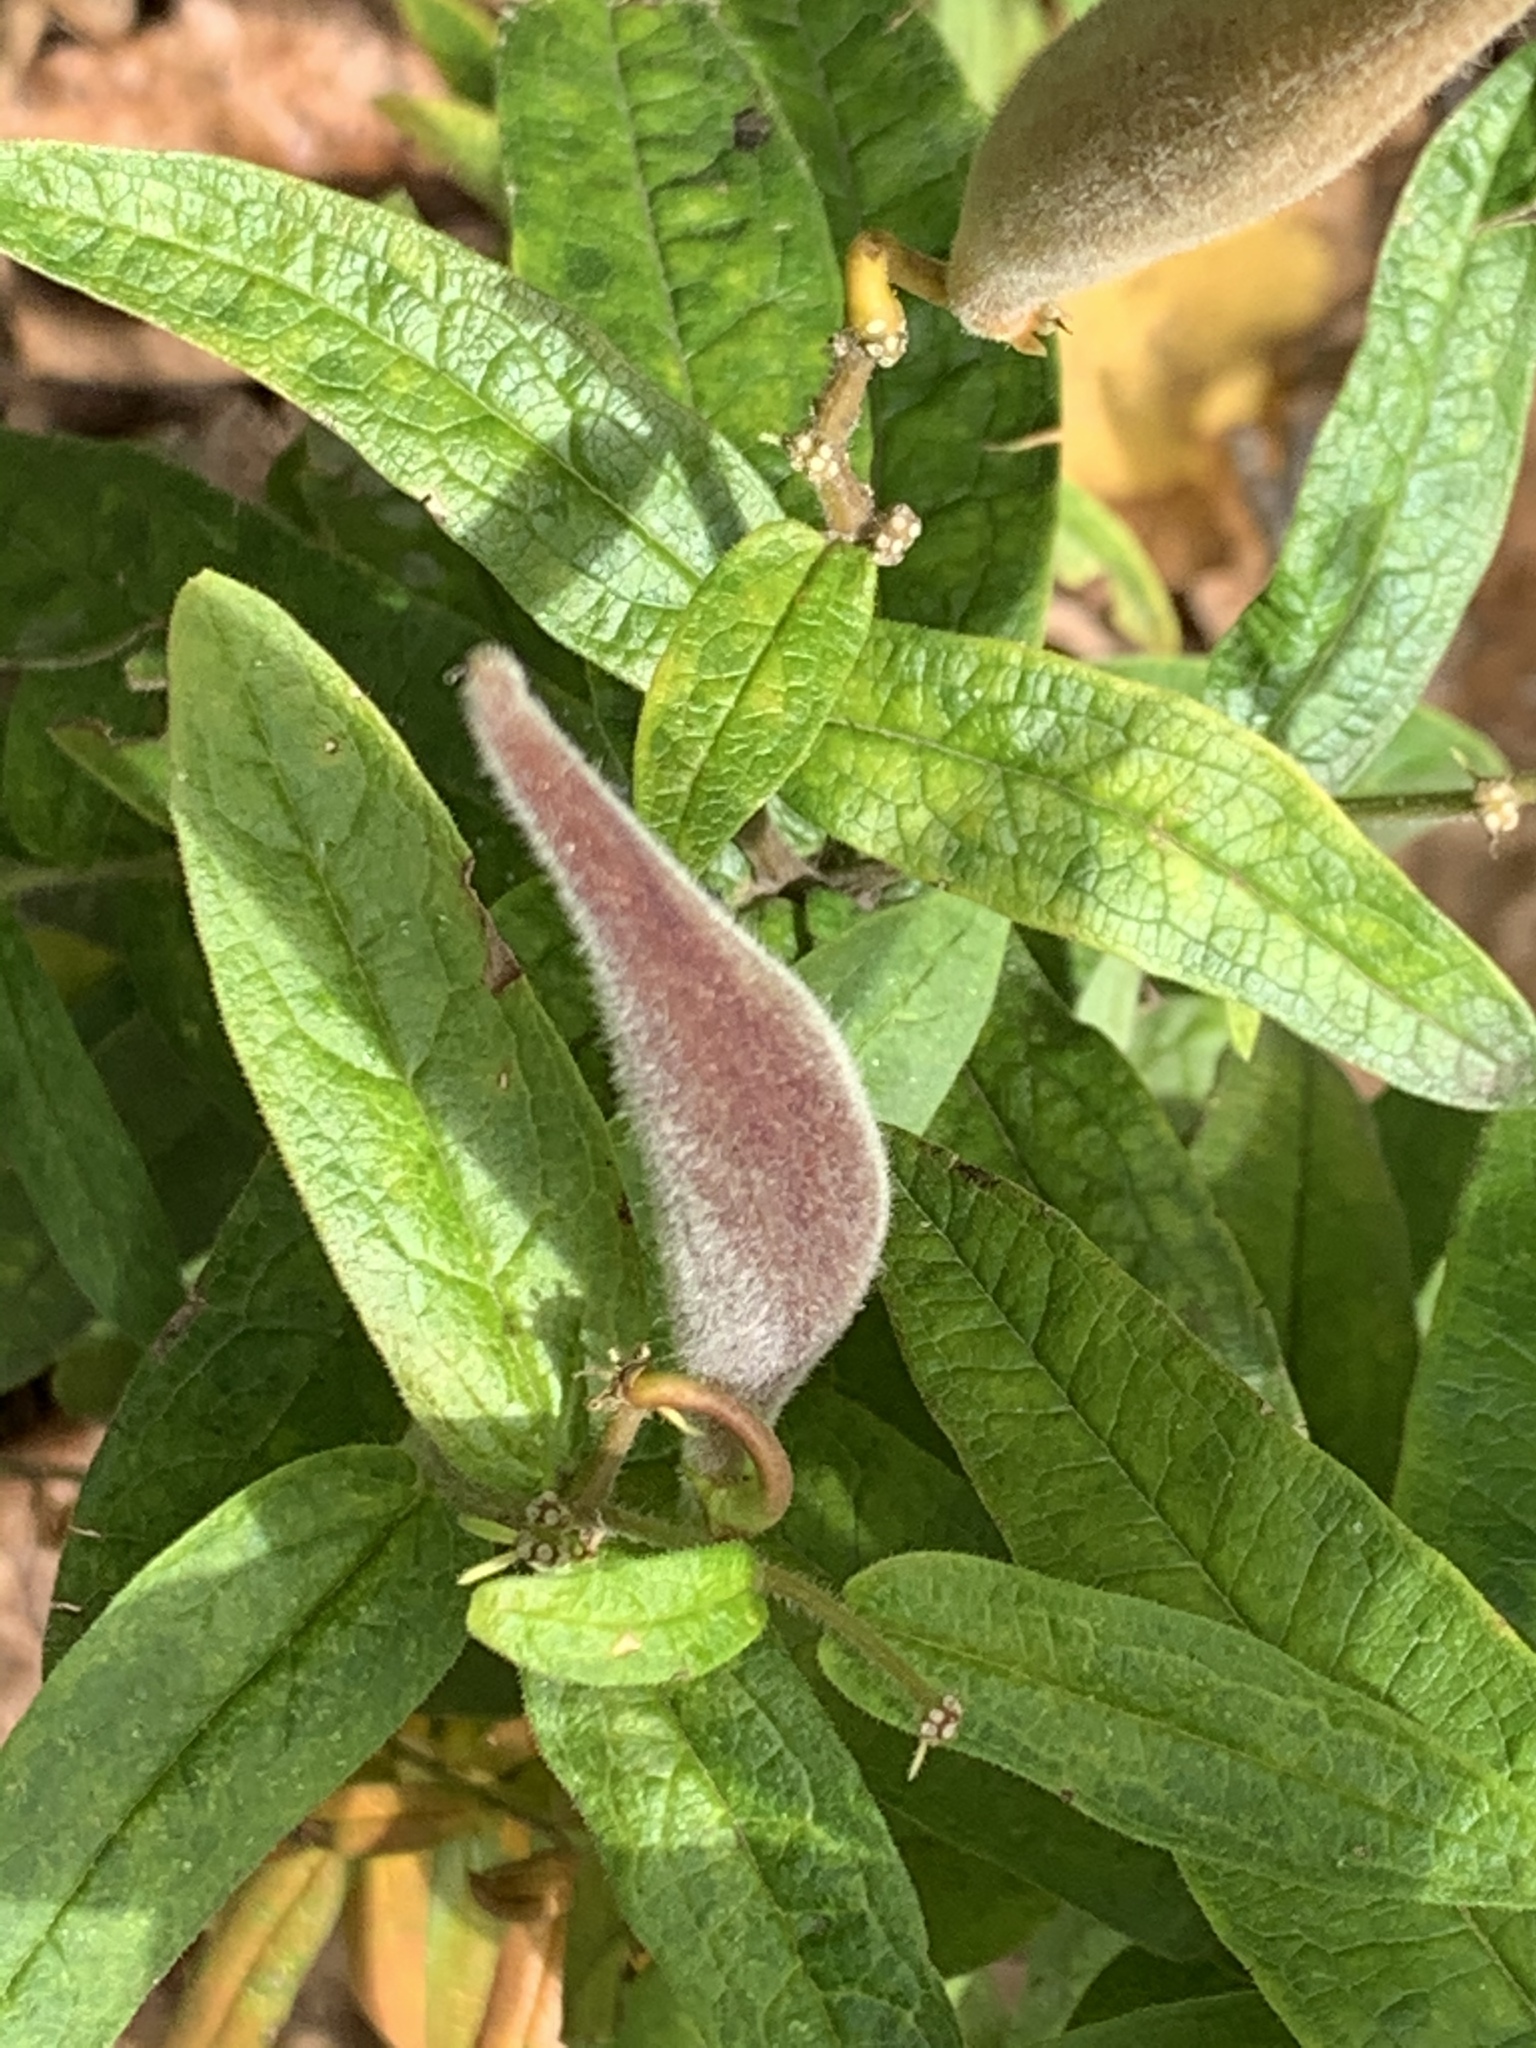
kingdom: Plantae
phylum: Tracheophyta
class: Magnoliopsida
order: Gentianales
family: Apocynaceae
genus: Asclepias
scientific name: Asclepias tuberosa
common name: Butterfly milkweed
